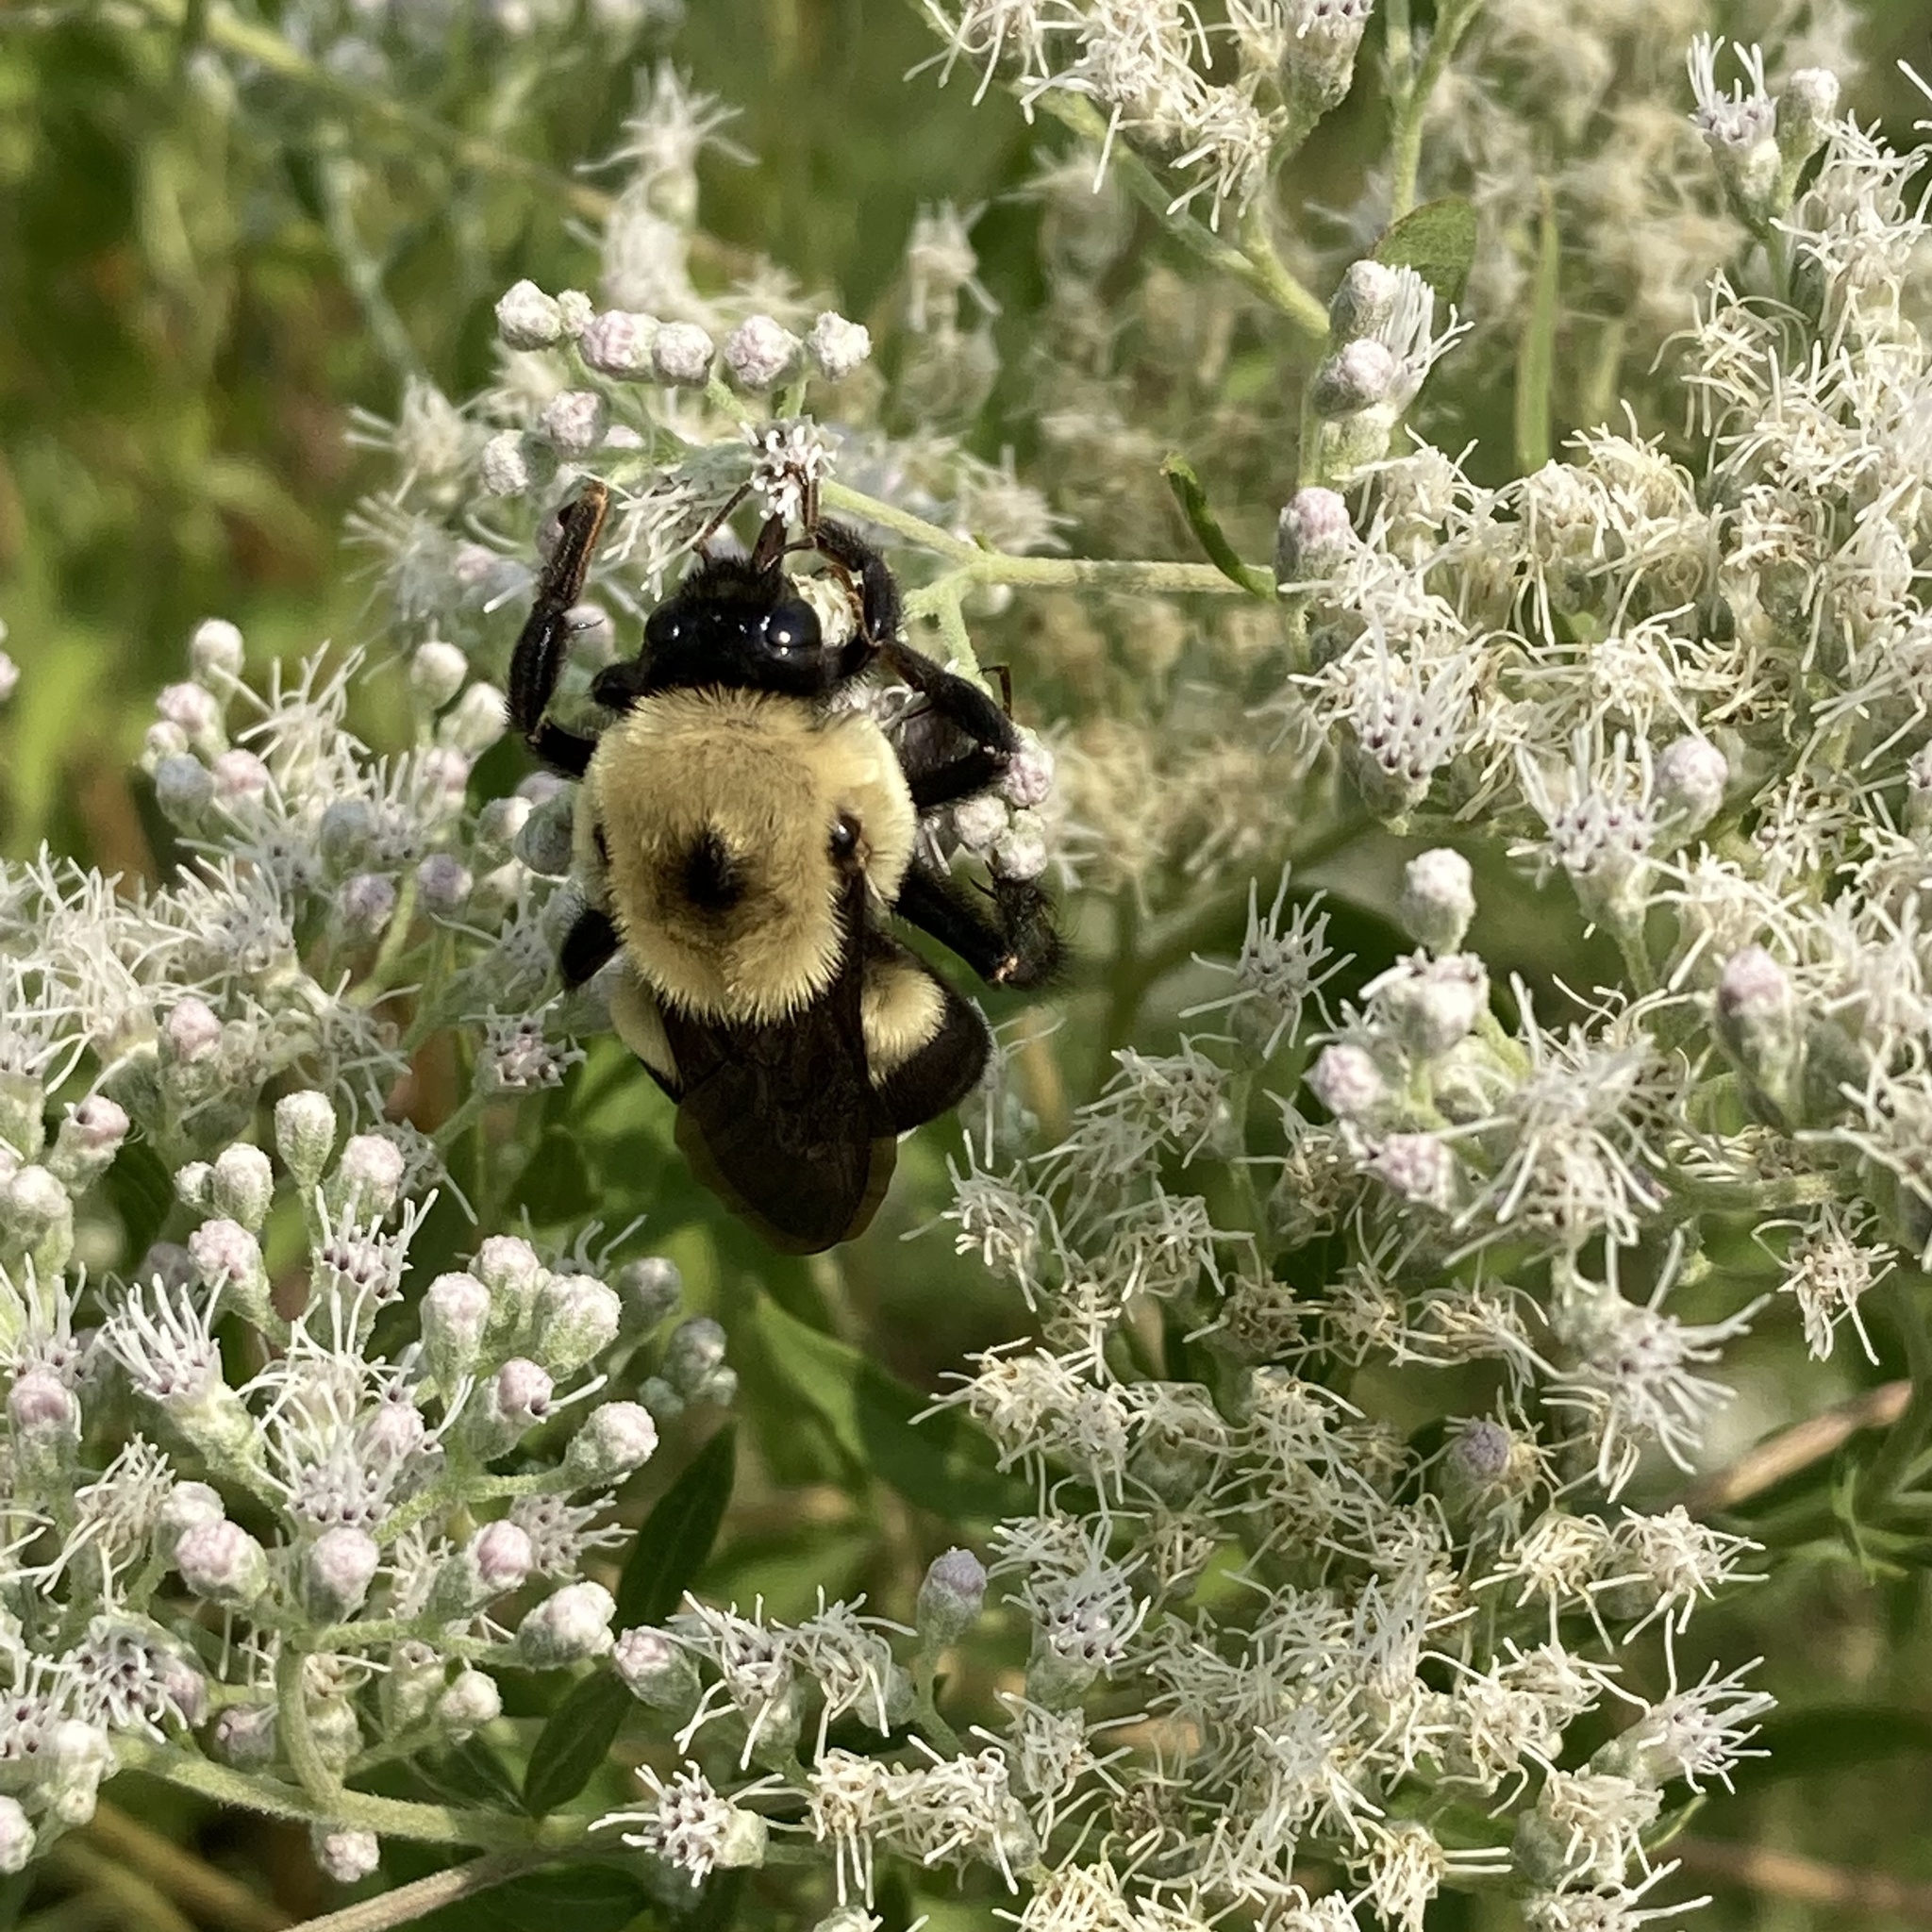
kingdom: Animalia
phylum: Arthropoda
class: Insecta
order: Hymenoptera
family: Apidae
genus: Bombus
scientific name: Bombus griseocollis
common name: Brown-belted bumble bee
